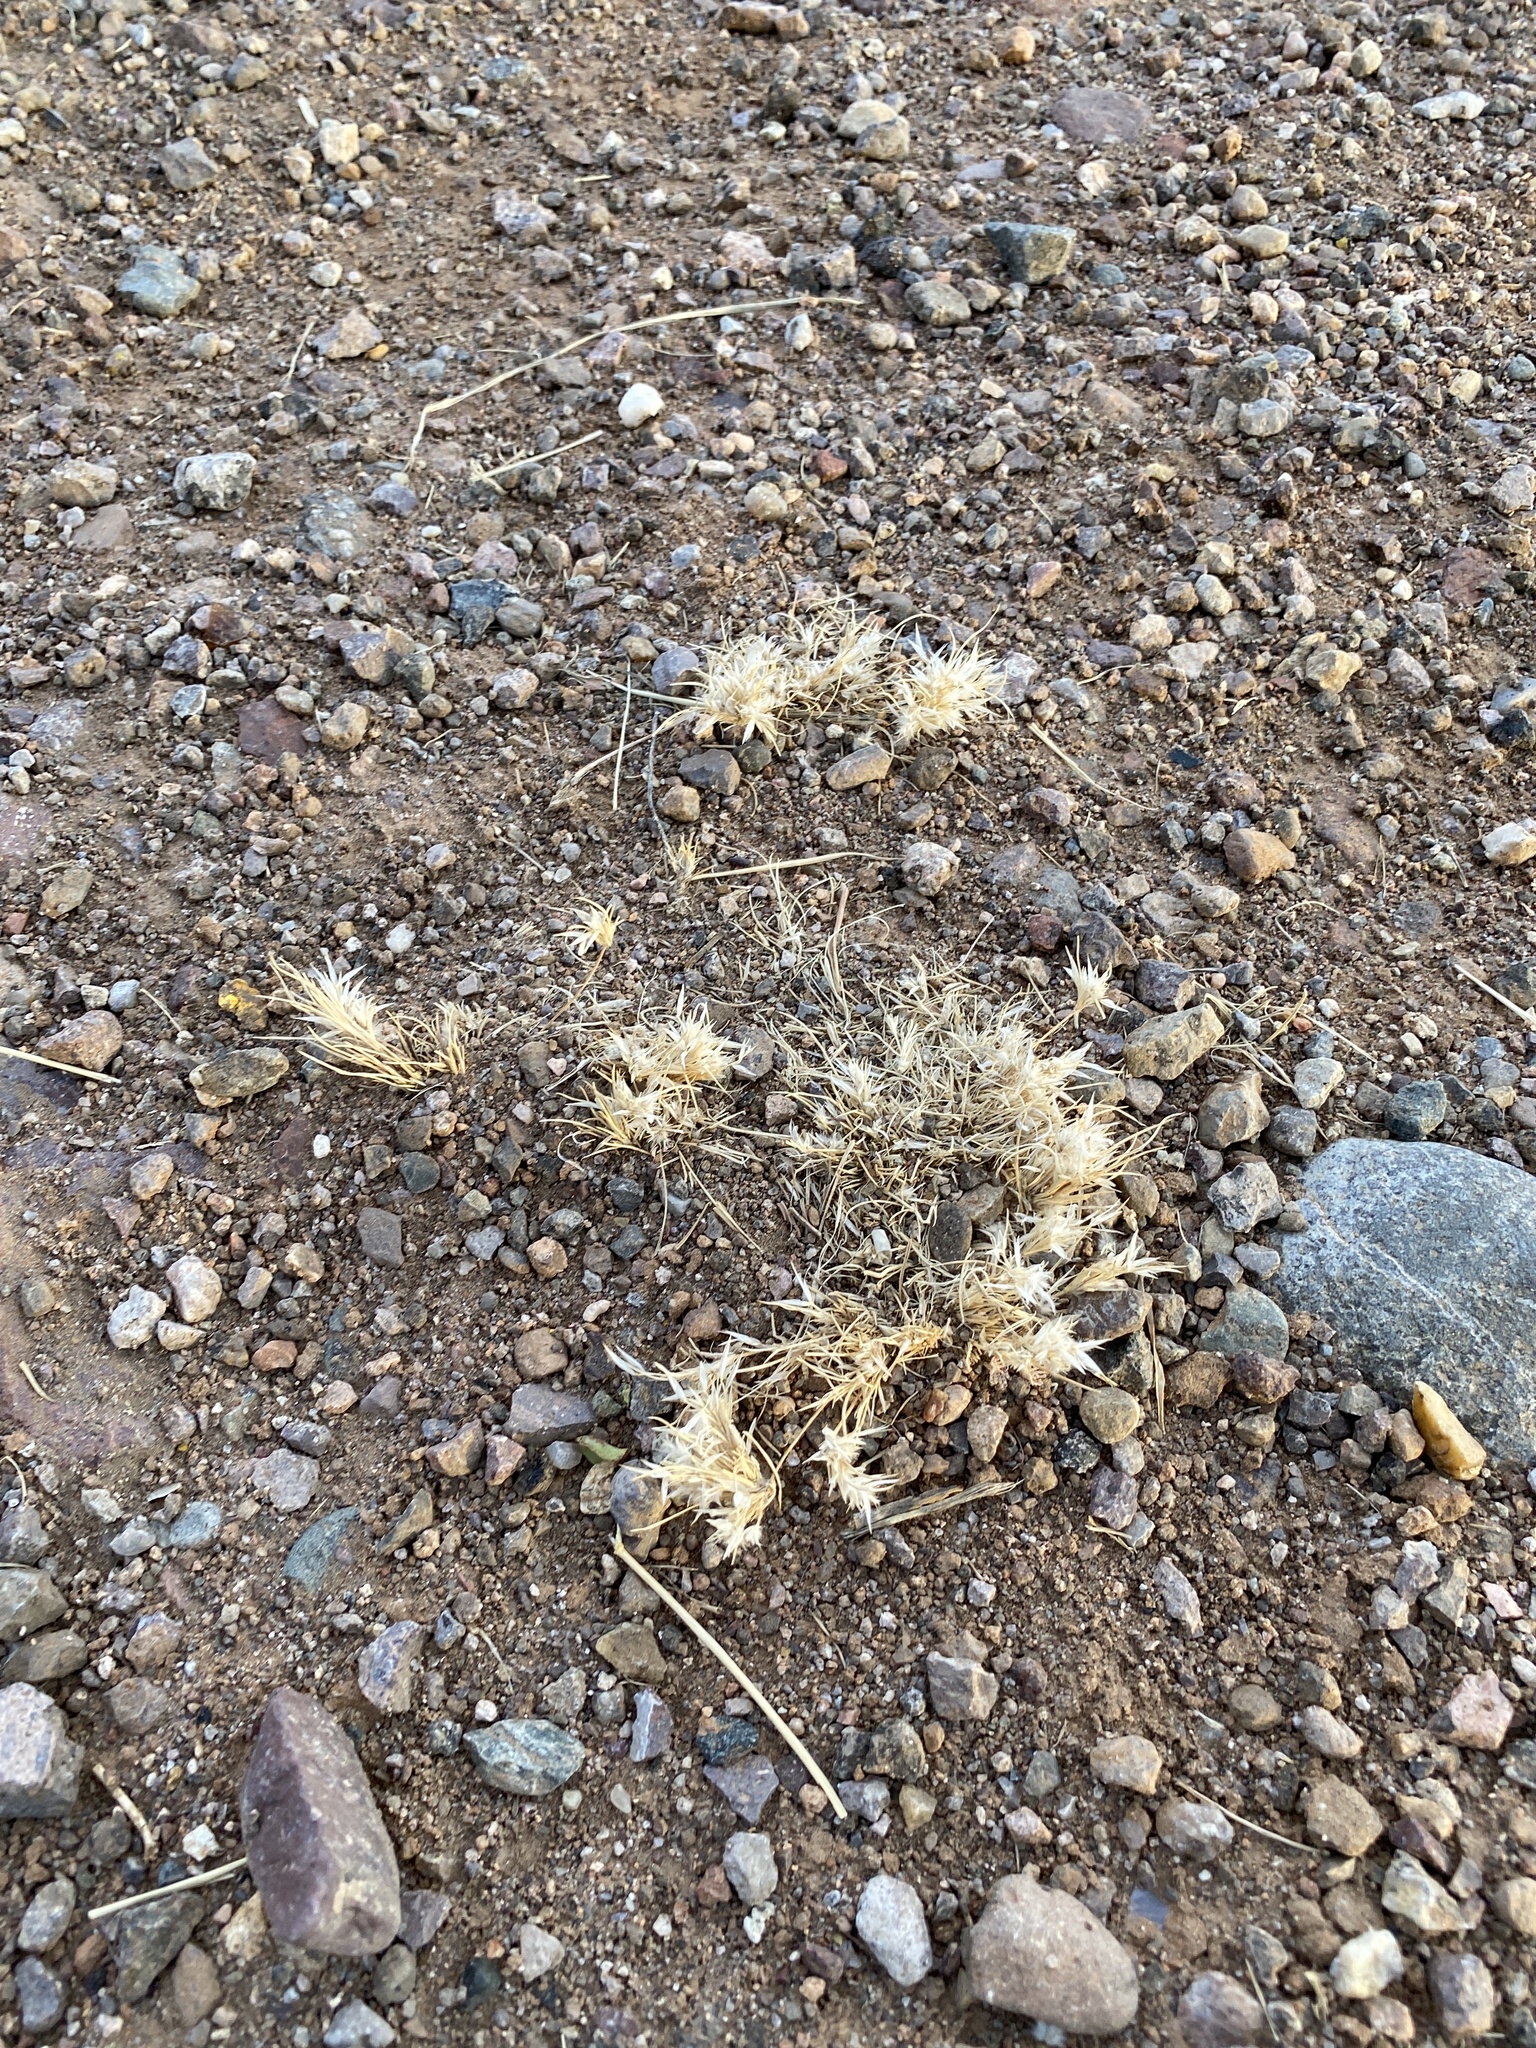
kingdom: Plantae
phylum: Tracheophyta
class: Liliopsida
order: Poales
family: Poaceae
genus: Dasyochloa
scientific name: Dasyochloa pulchella
